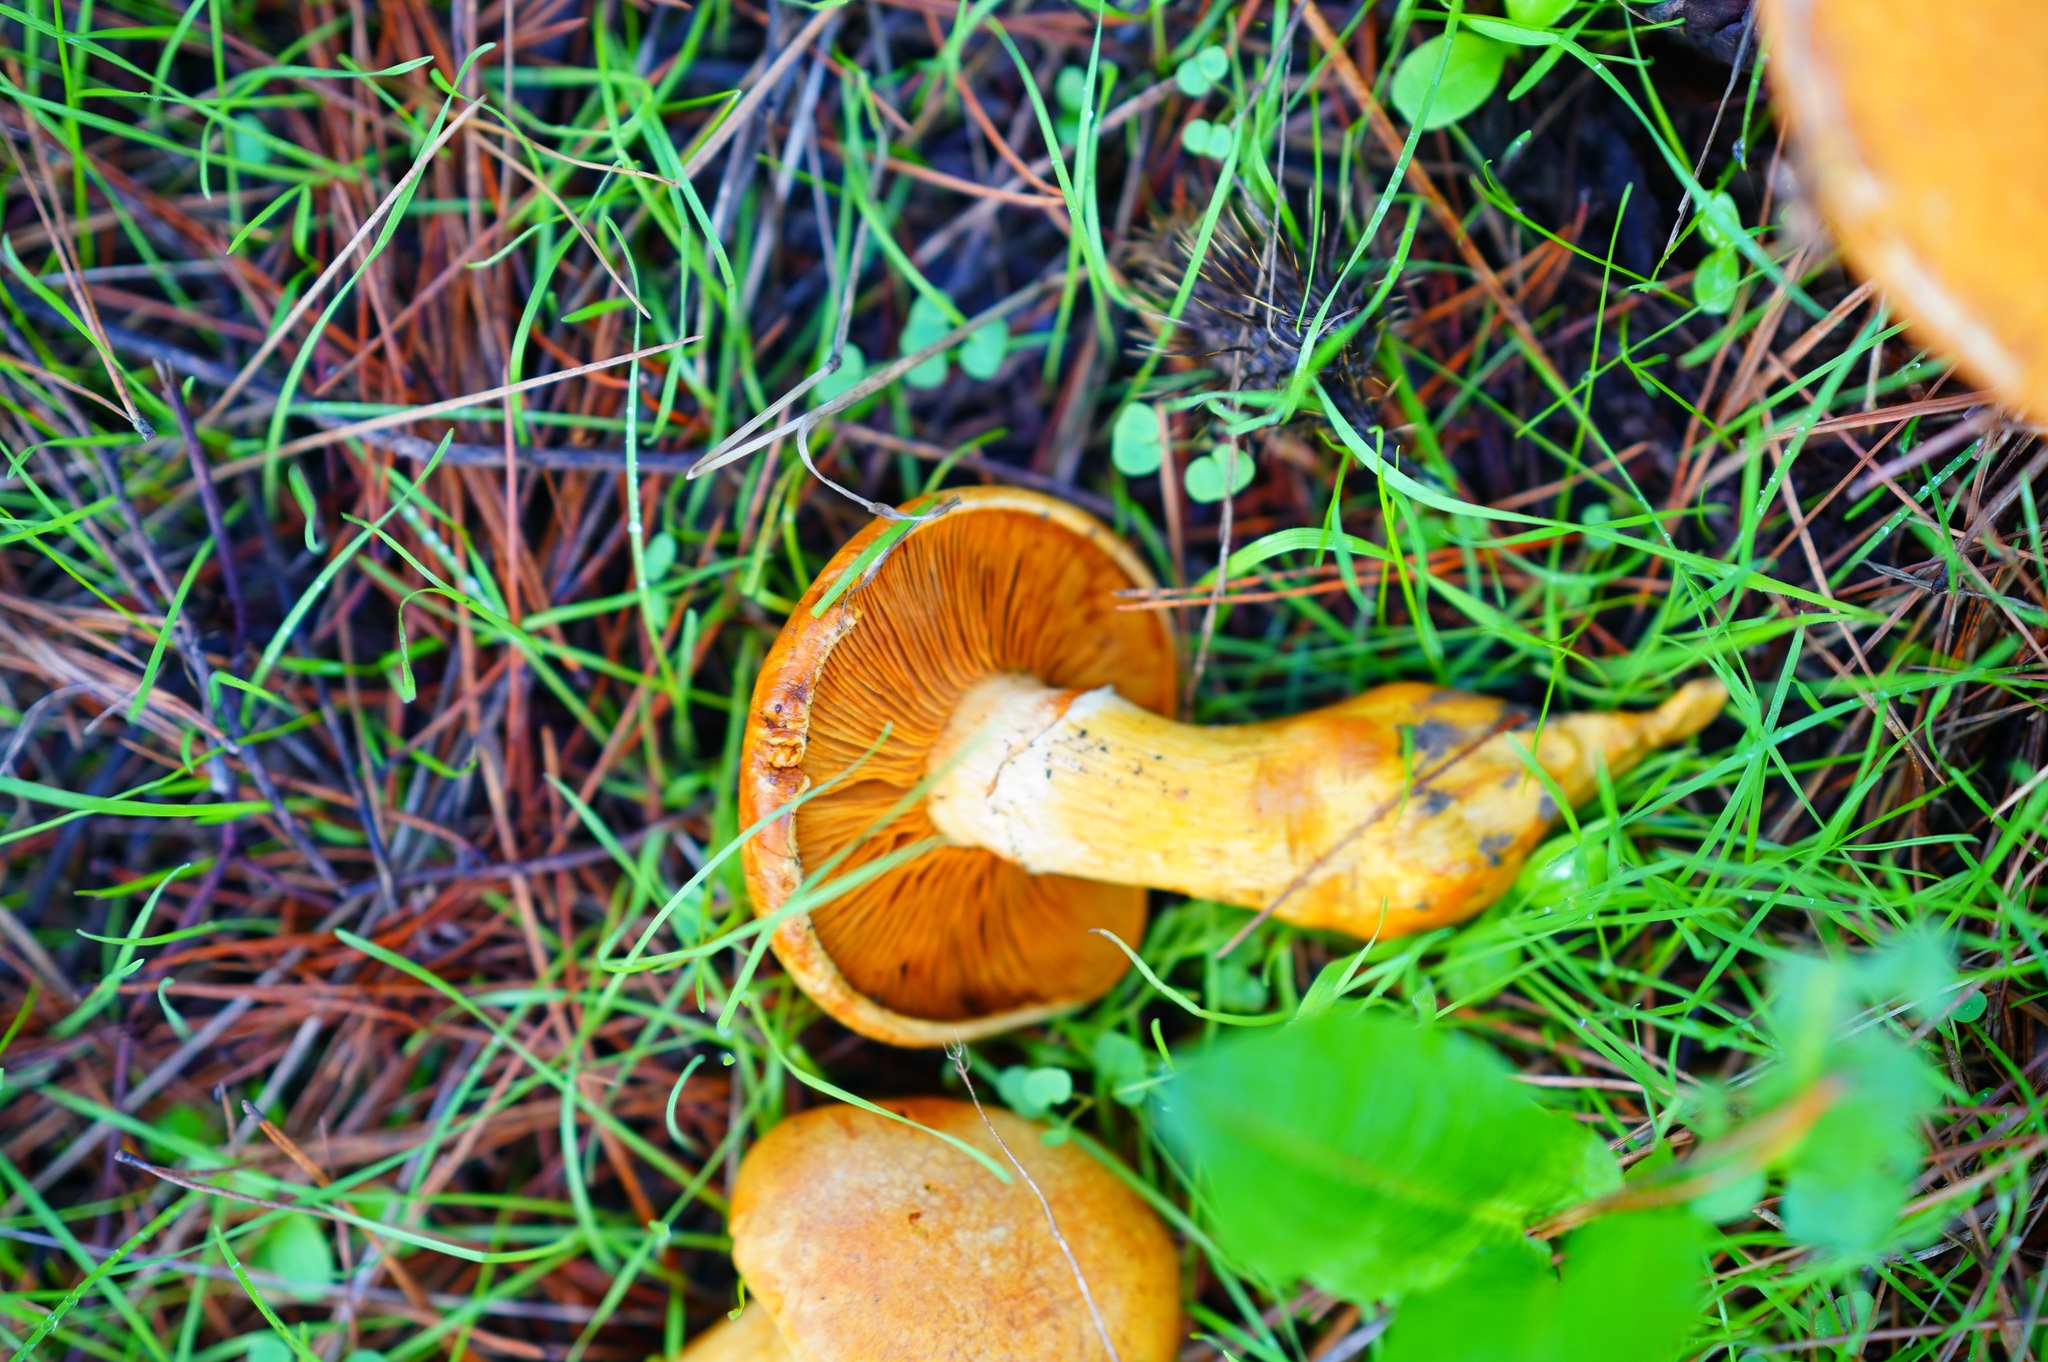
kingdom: Fungi
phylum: Basidiomycota
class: Agaricomycetes
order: Agaricales
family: Hymenogastraceae
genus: Gymnopilus
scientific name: Gymnopilus ventricosus
